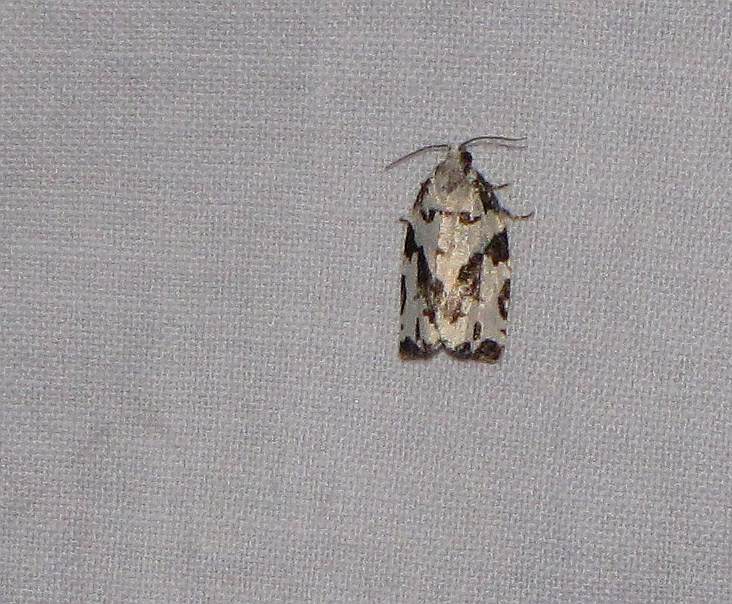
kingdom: Animalia
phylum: Arthropoda
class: Insecta
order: Lepidoptera
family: Tortricidae
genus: Archips
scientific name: Archips dissitana
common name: Boldly-marked archips moth
